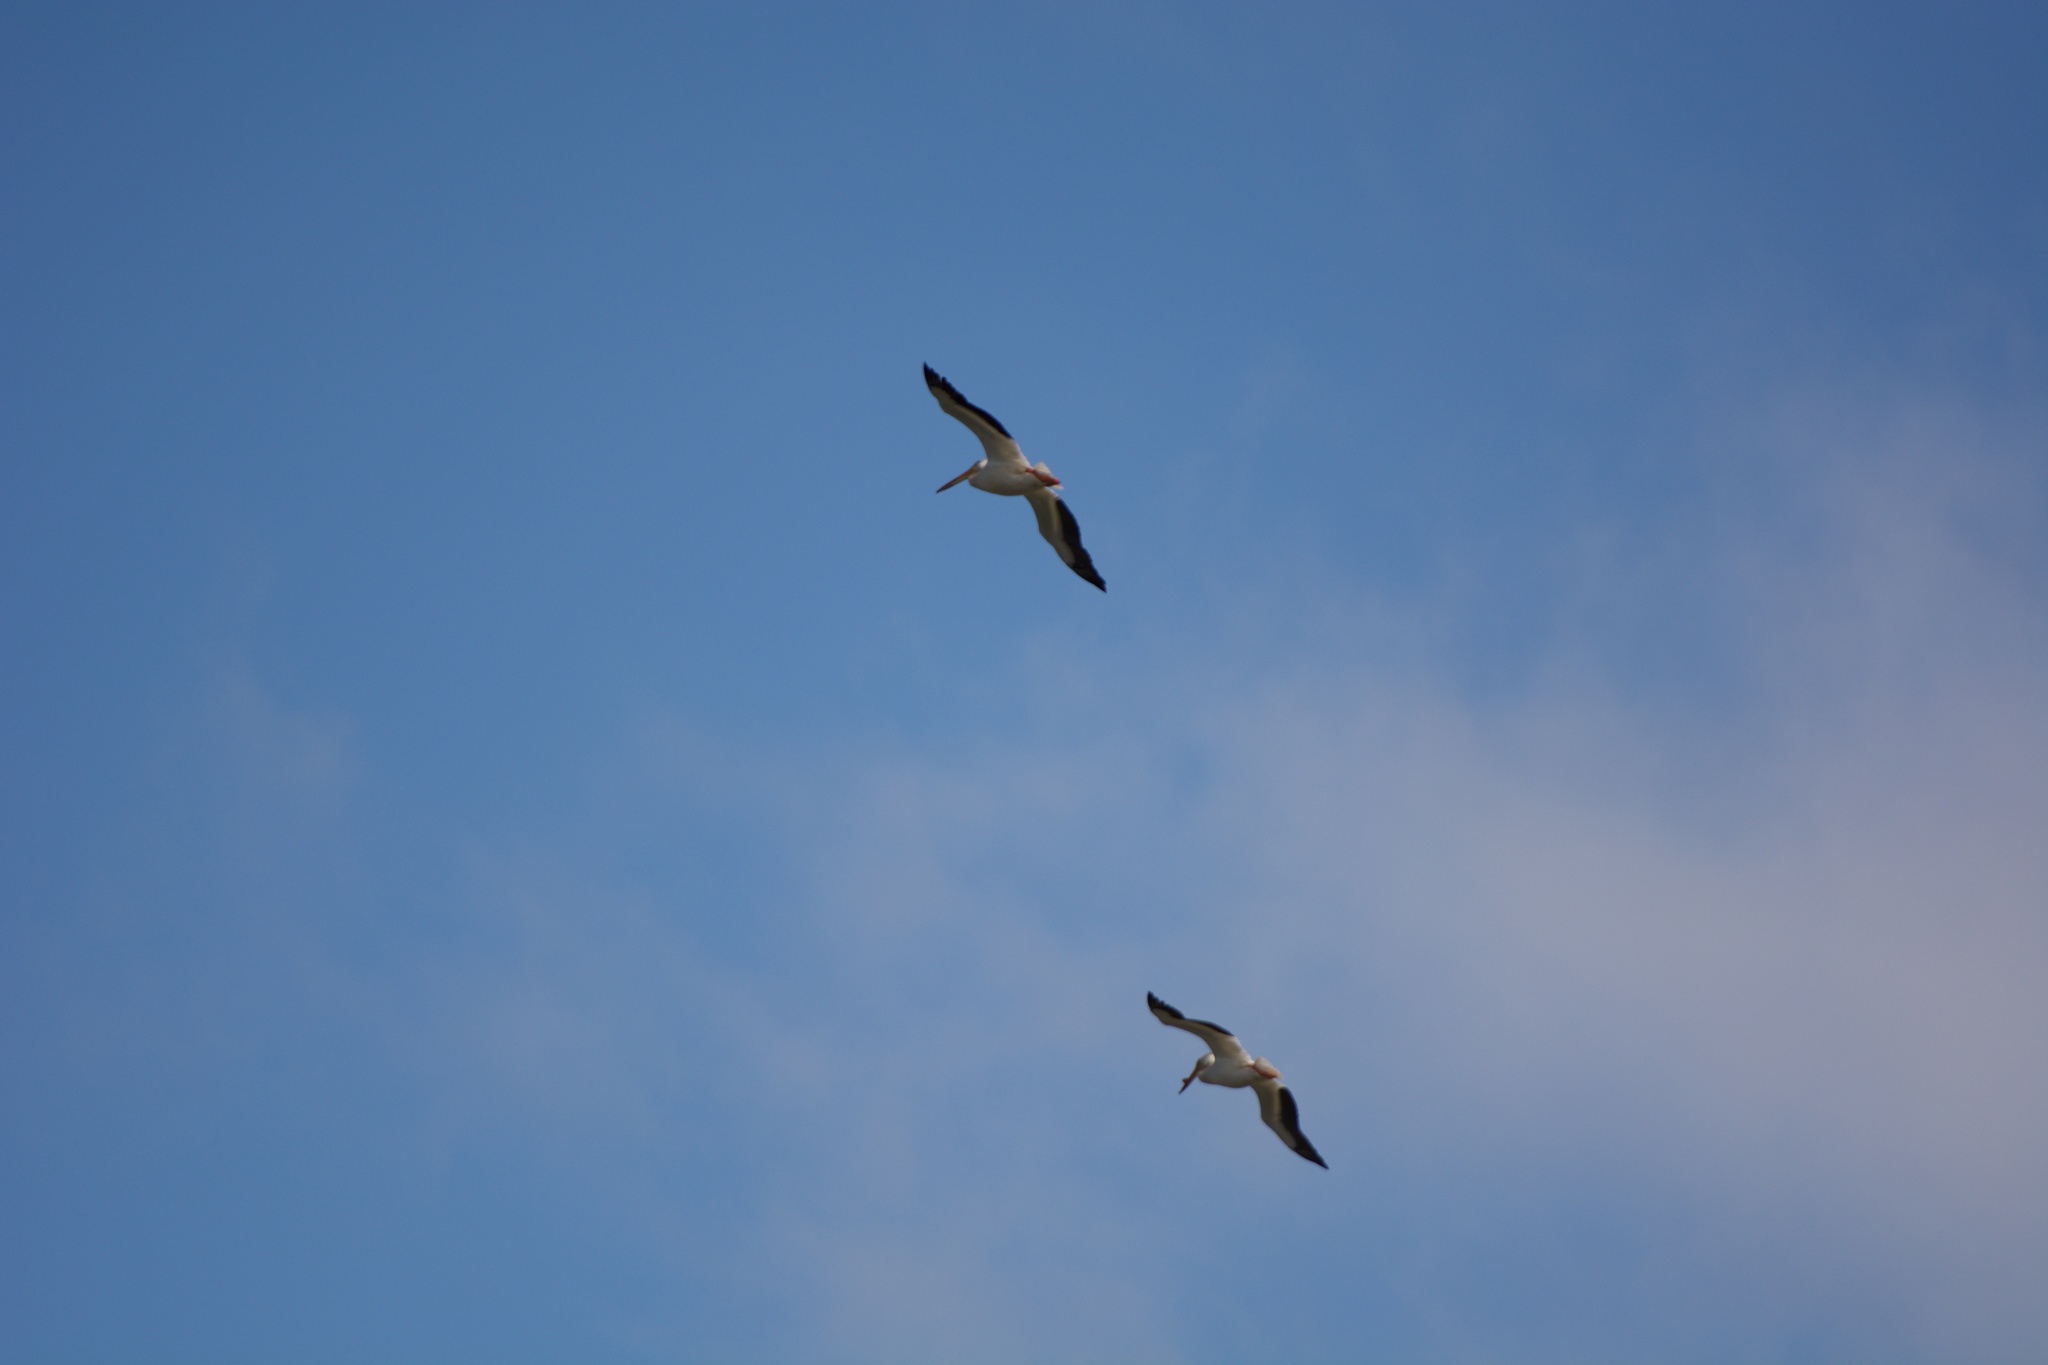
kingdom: Animalia
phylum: Chordata
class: Aves
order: Pelecaniformes
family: Pelecanidae
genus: Pelecanus
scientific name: Pelecanus erythrorhynchos
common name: American white pelican
